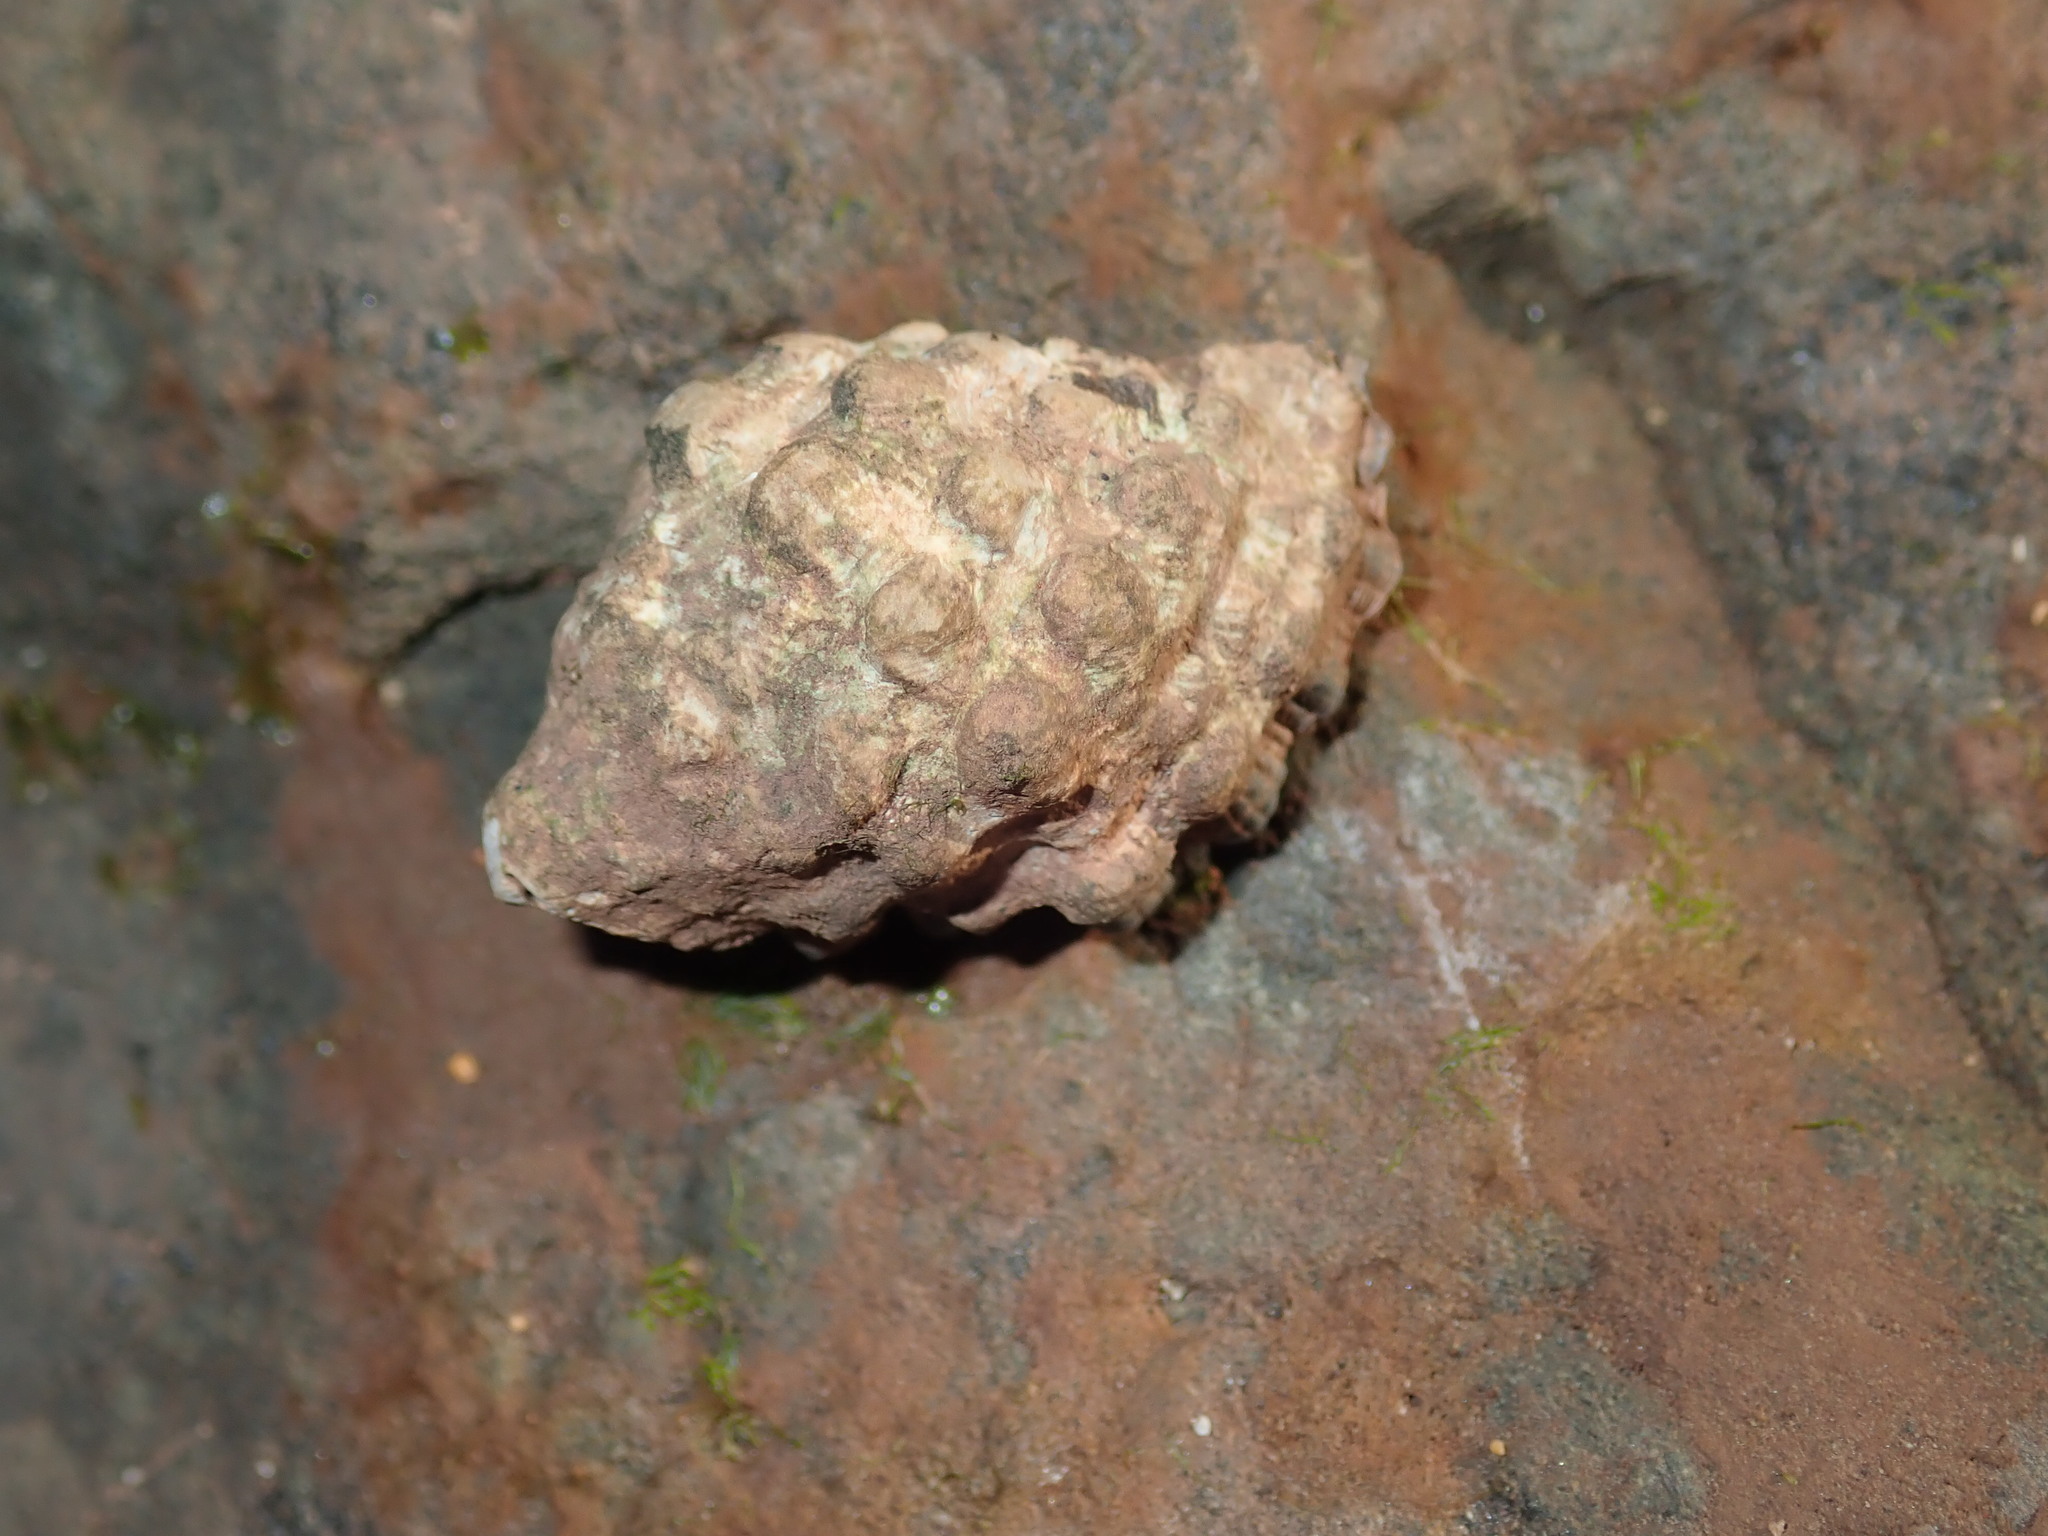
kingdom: Animalia
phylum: Mollusca
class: Gastropoda
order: Neogastropoda
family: Muricidae
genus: Tenguella
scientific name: Tenguella marginalba
